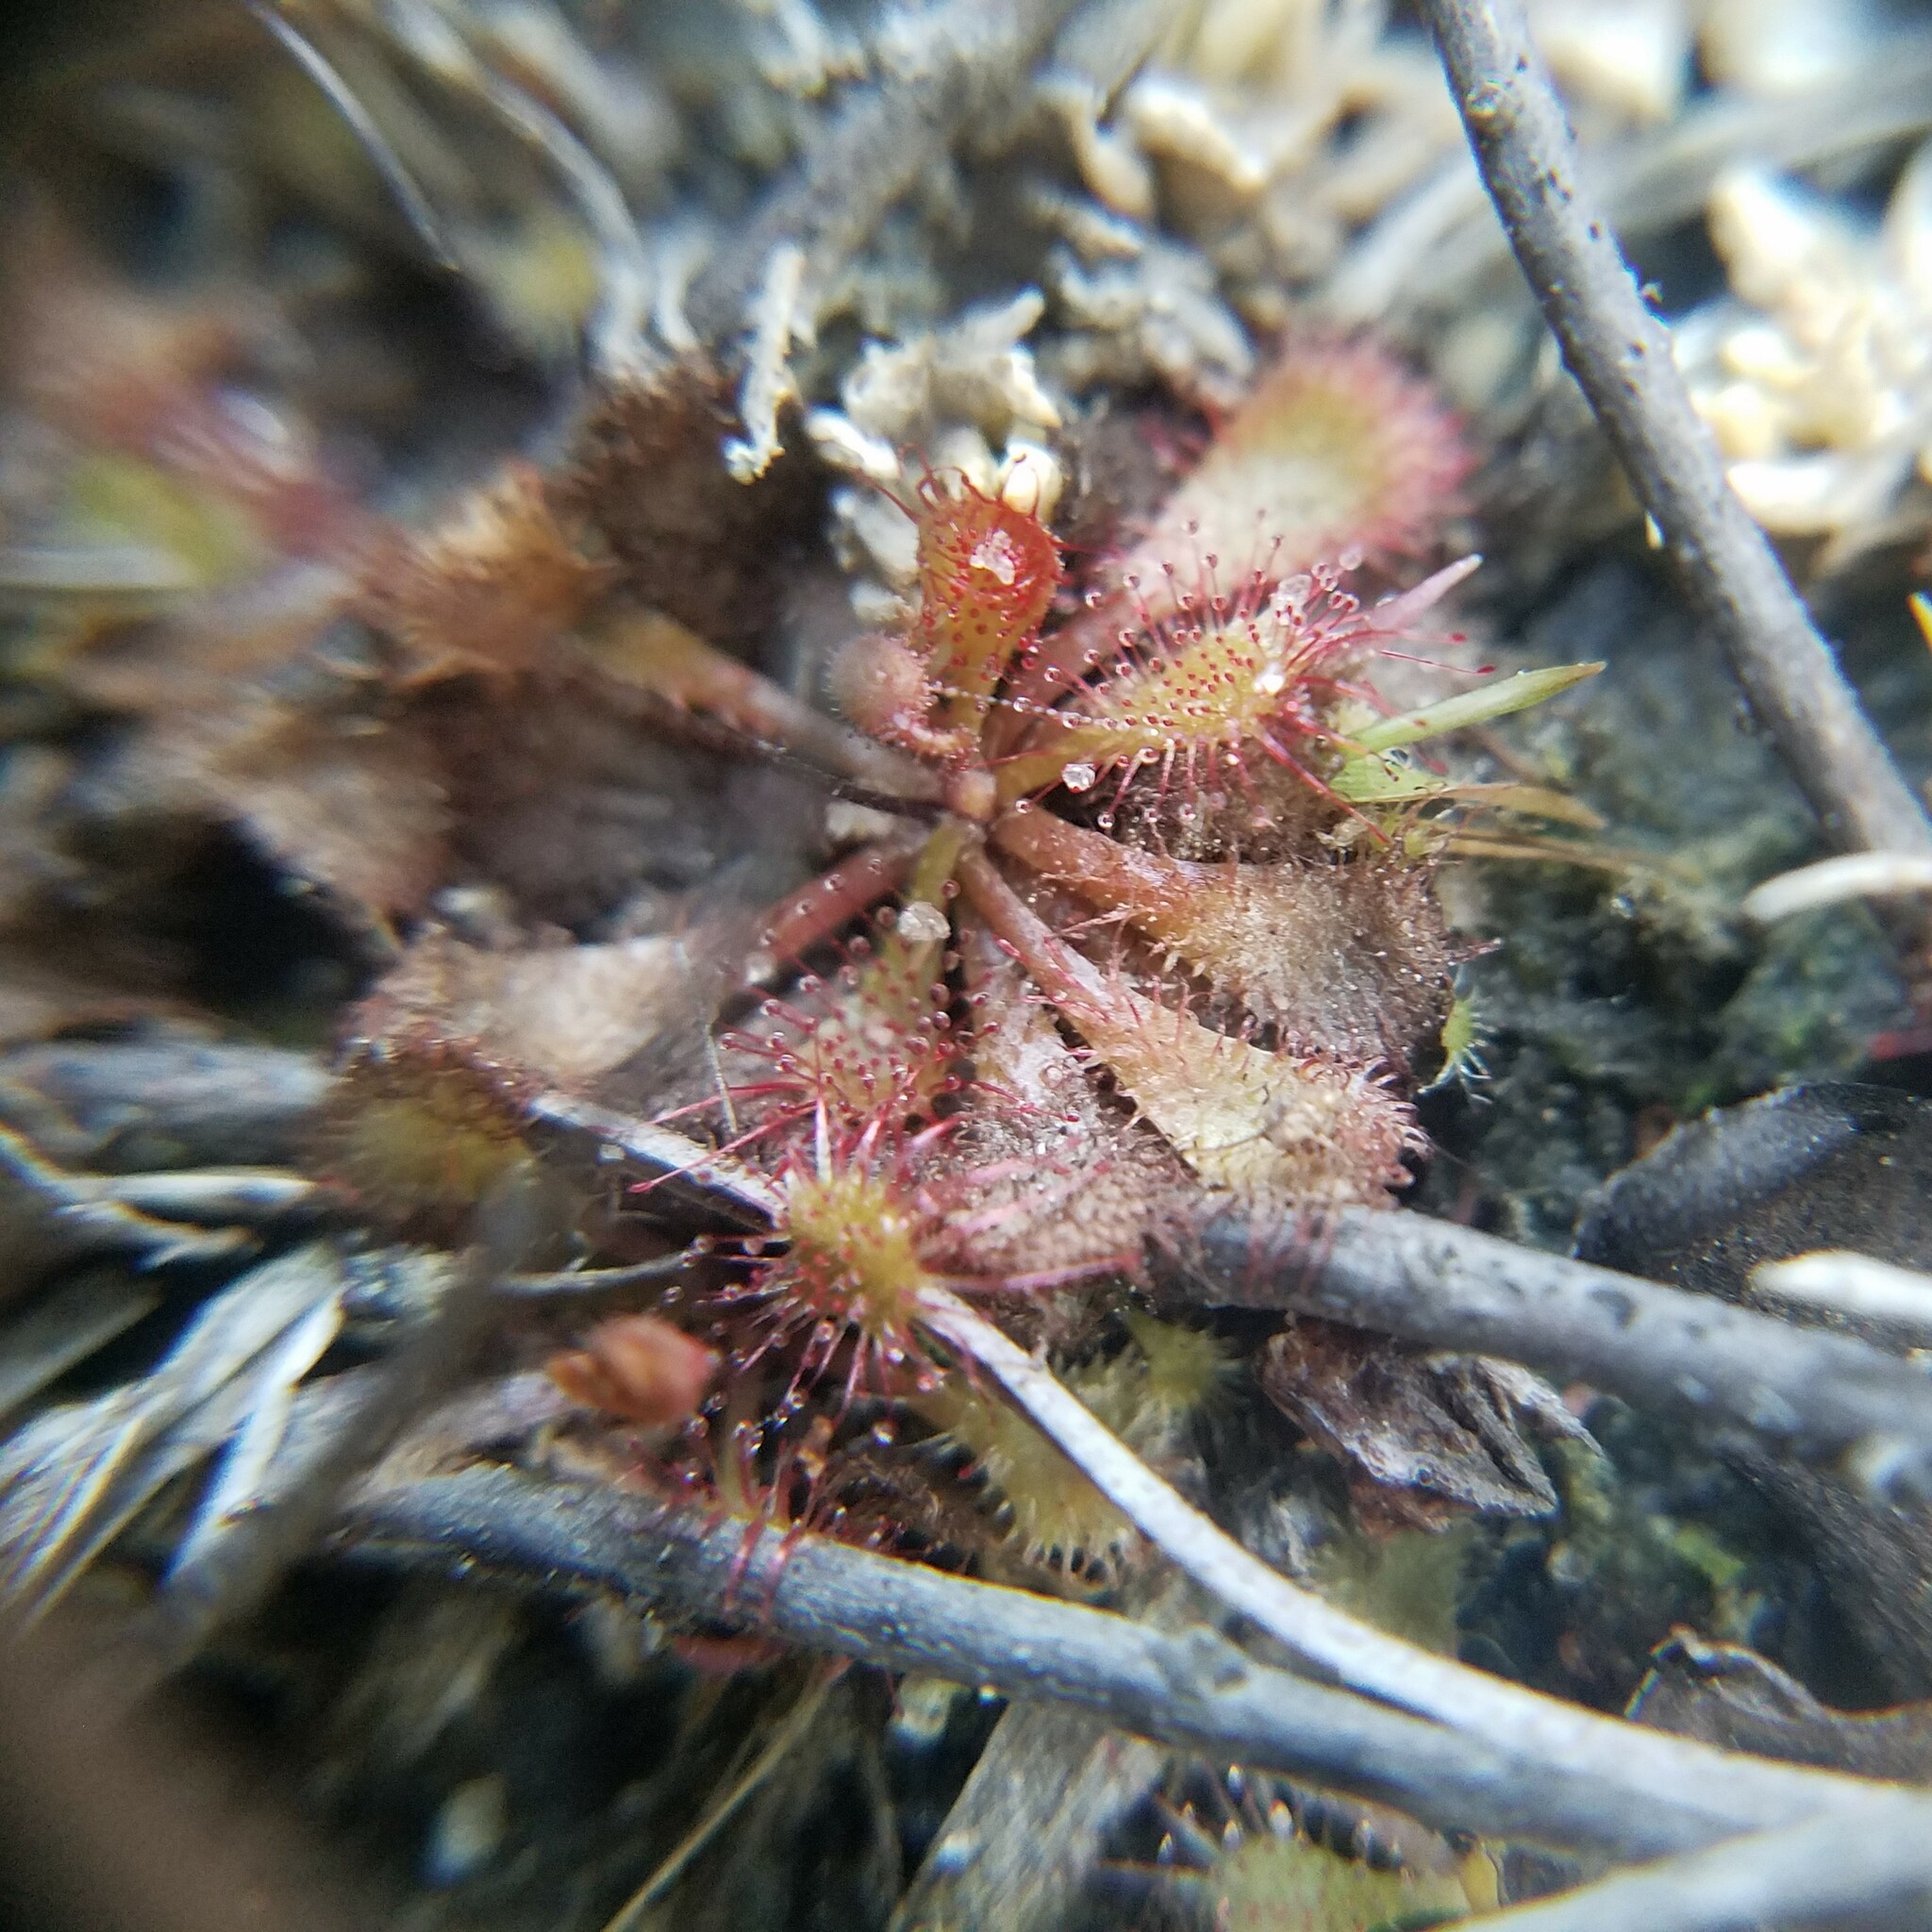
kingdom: Plantae
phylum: Tracheophyta
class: Magnoliopsida
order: Caryophyllales
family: Droseraceae
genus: Drosera
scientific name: Drosera brevifolia
